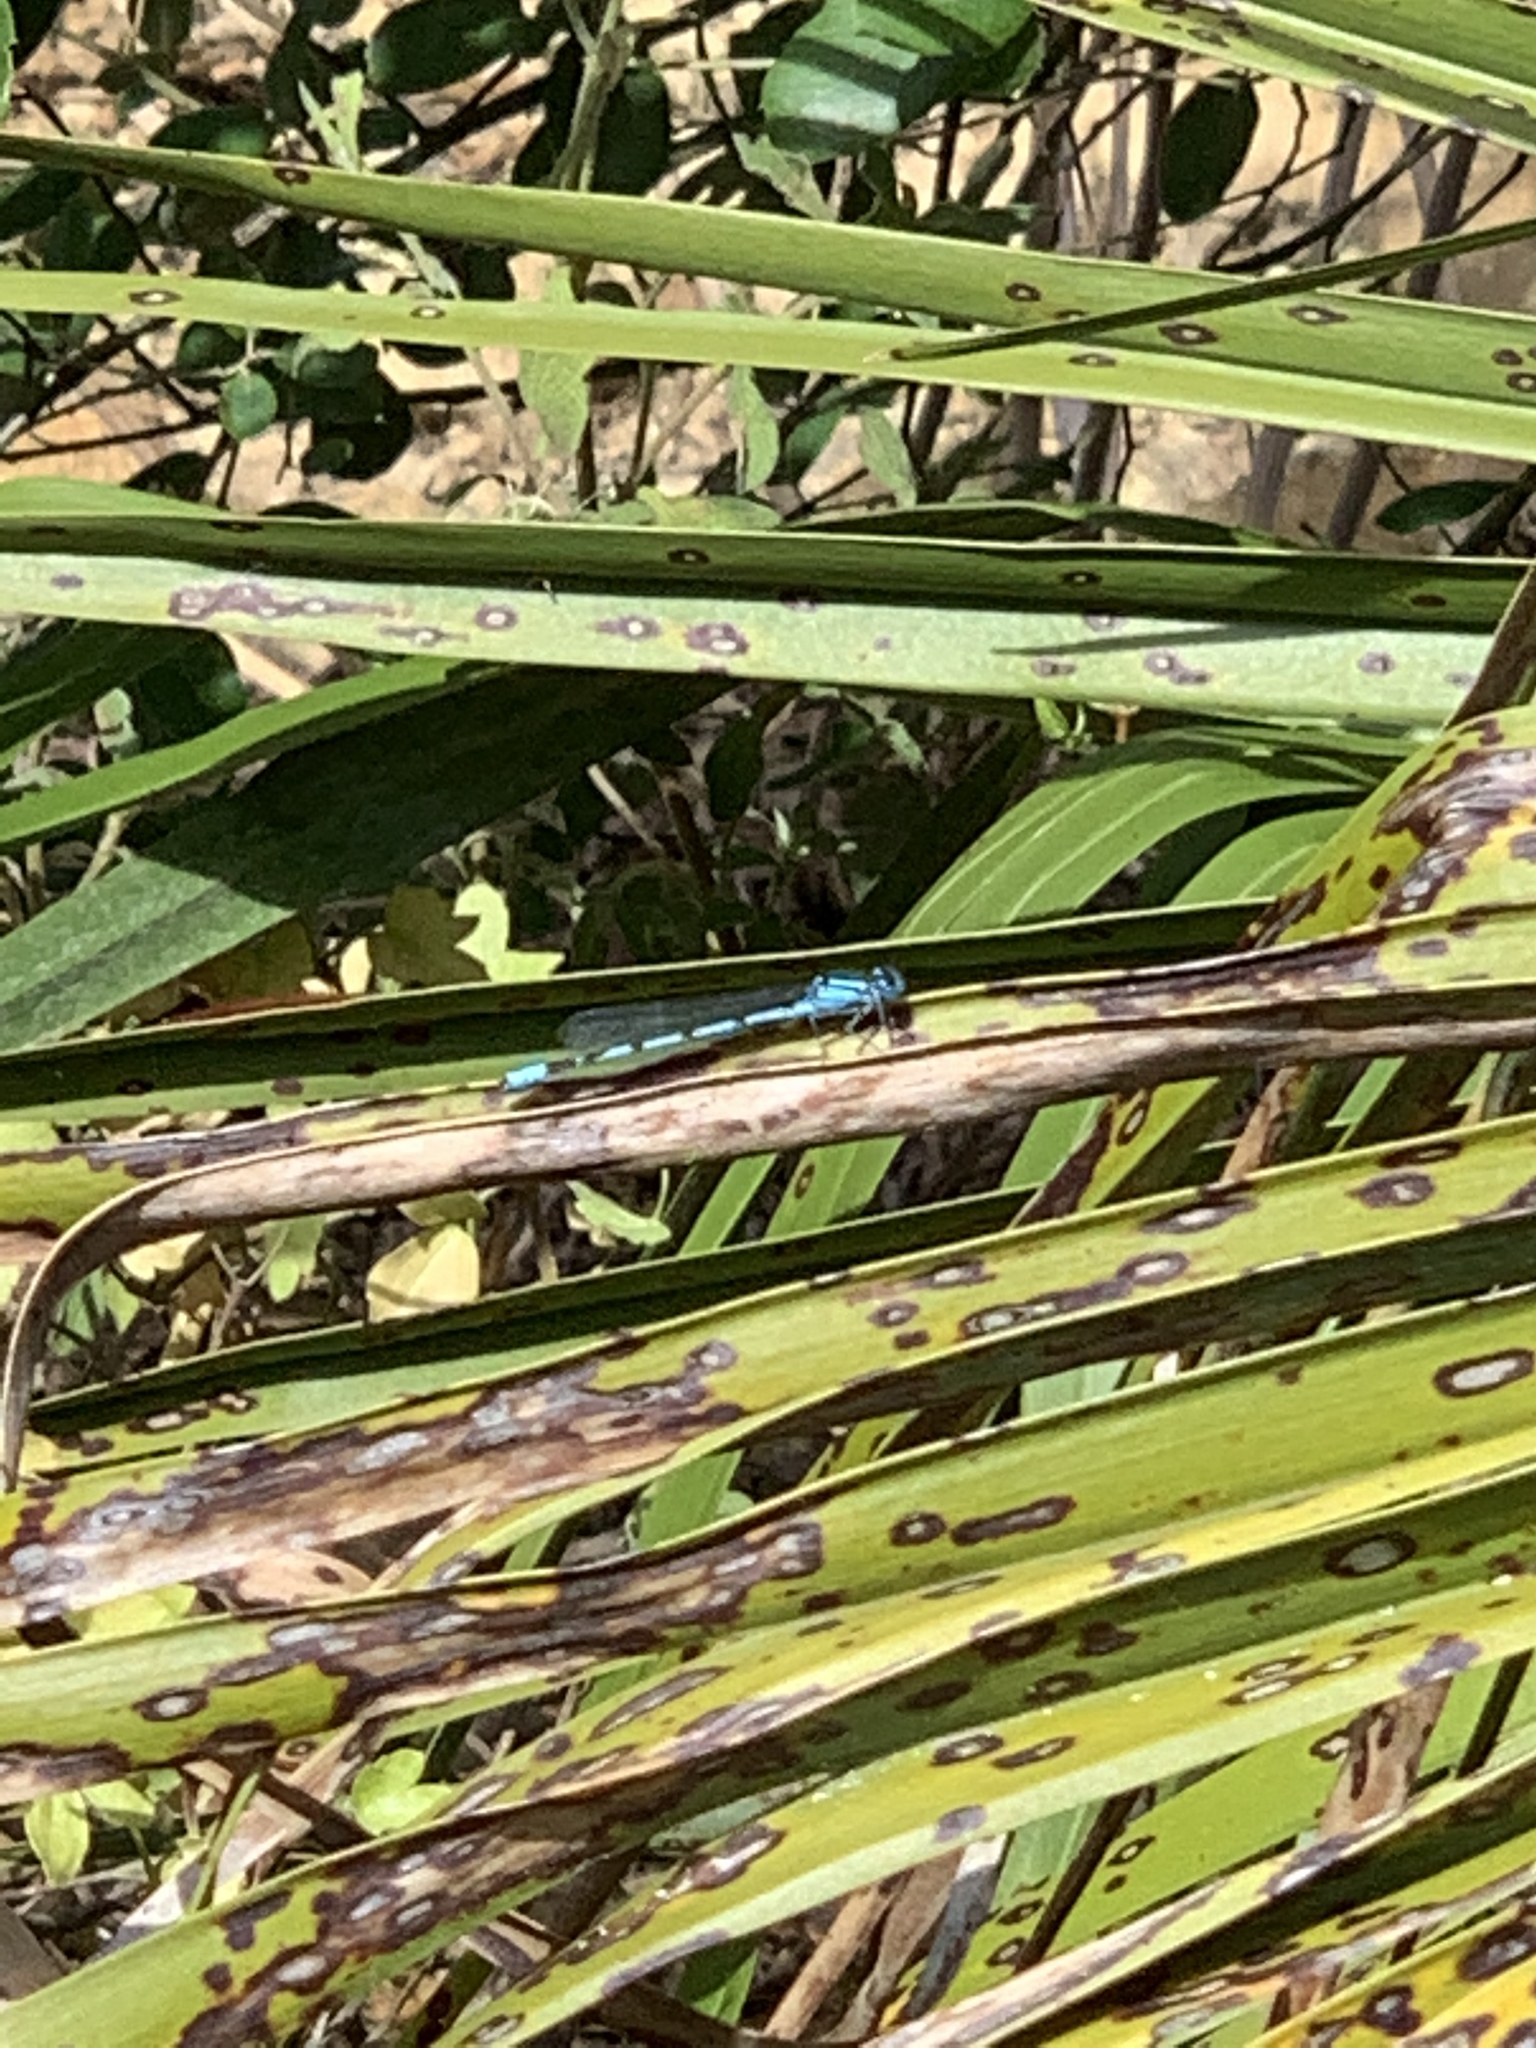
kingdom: Animalia
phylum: Arthropoda
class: Insecta
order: Odonata
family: Coenagrionidae
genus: Enallagma
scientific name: Enallagma cyathigerum
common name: Common blue damselfly
